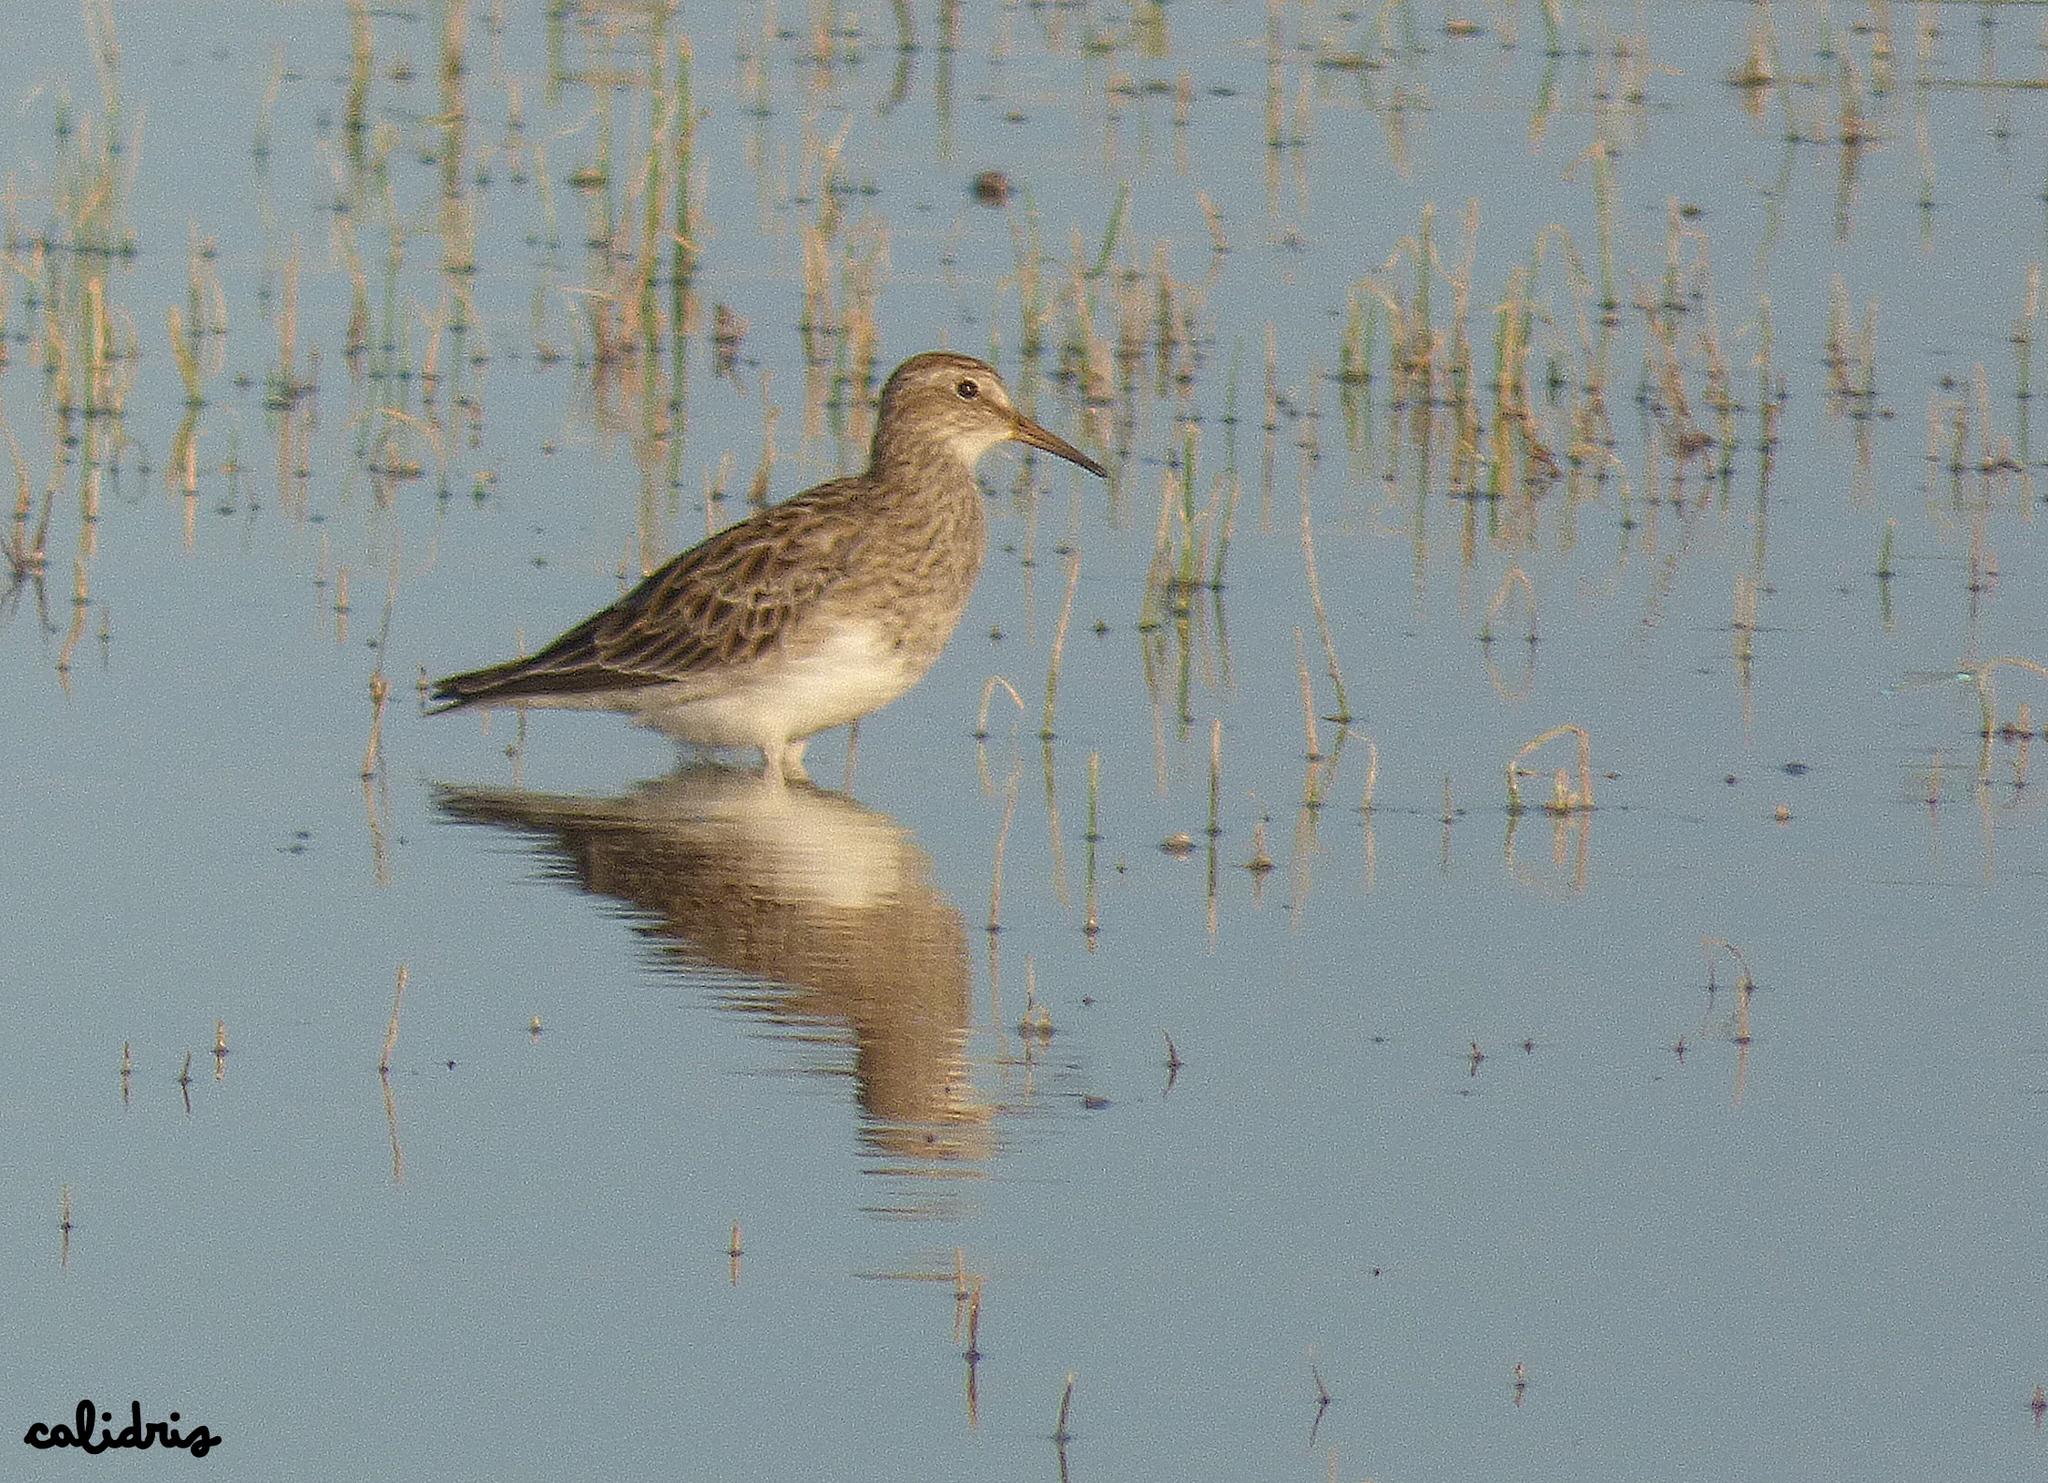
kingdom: Animalia
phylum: Chordata
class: Aves
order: Charadriiformes
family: Scolopacidae
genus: Calidris
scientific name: Calidris melanotos
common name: Pectoral sandpiper
